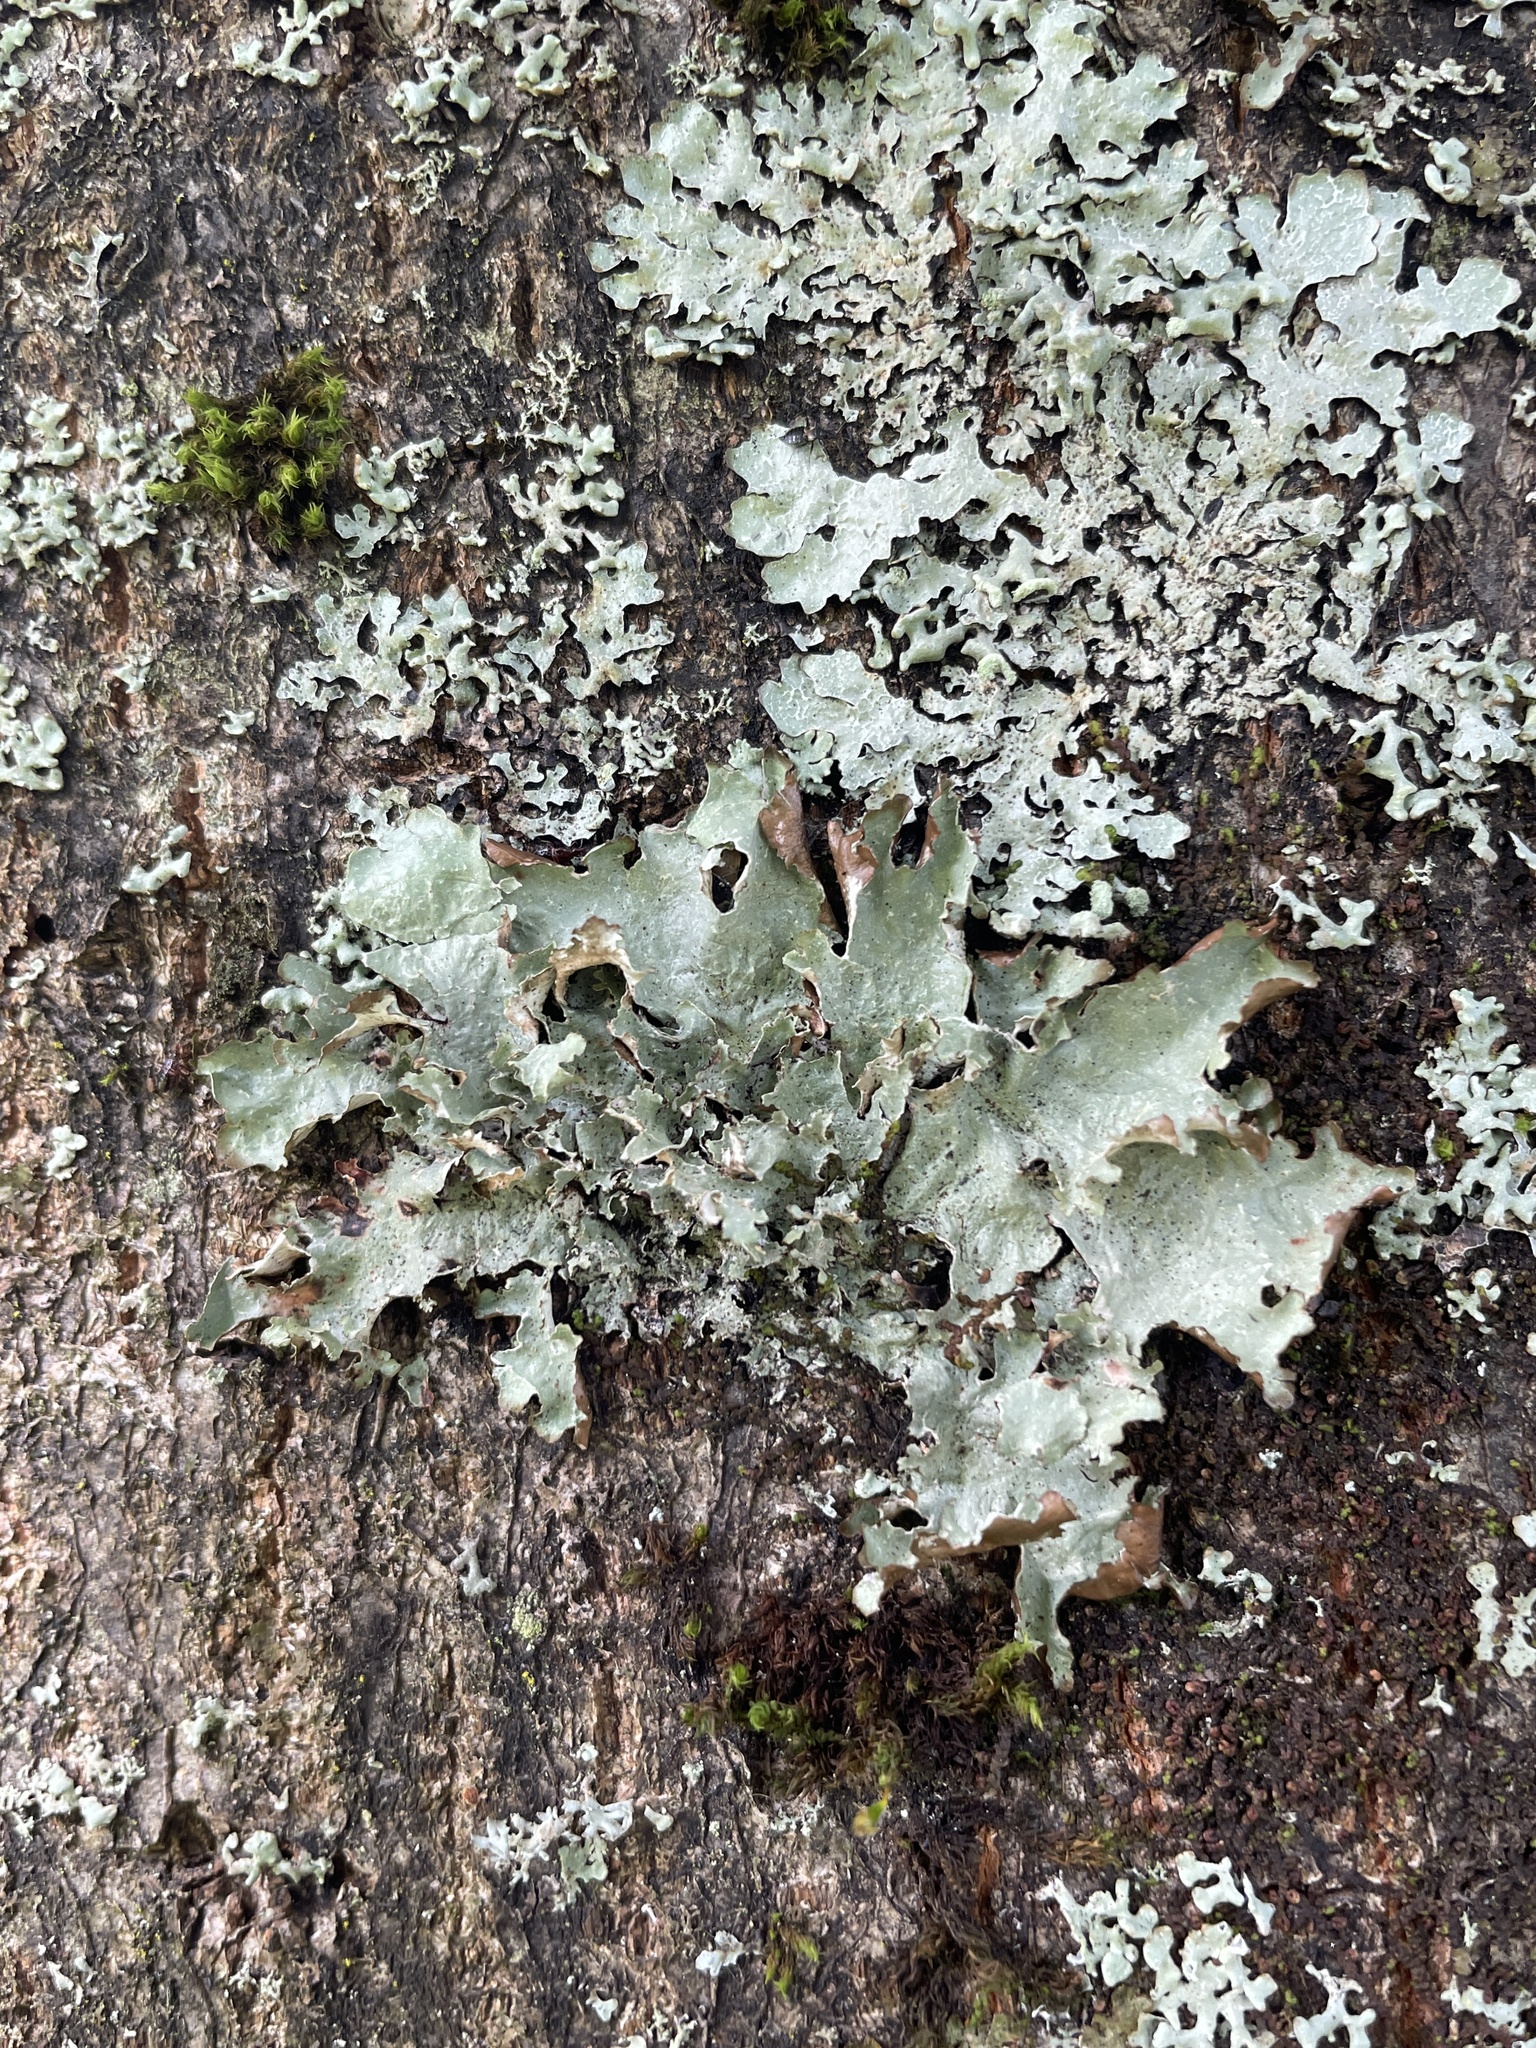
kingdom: Fungi
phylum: Ascomycota
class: Lecanoromycetes
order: Lecanorales
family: Parmeliaceae
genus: Platismatia
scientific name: Platismatia glauca
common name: Varied rag lichen
